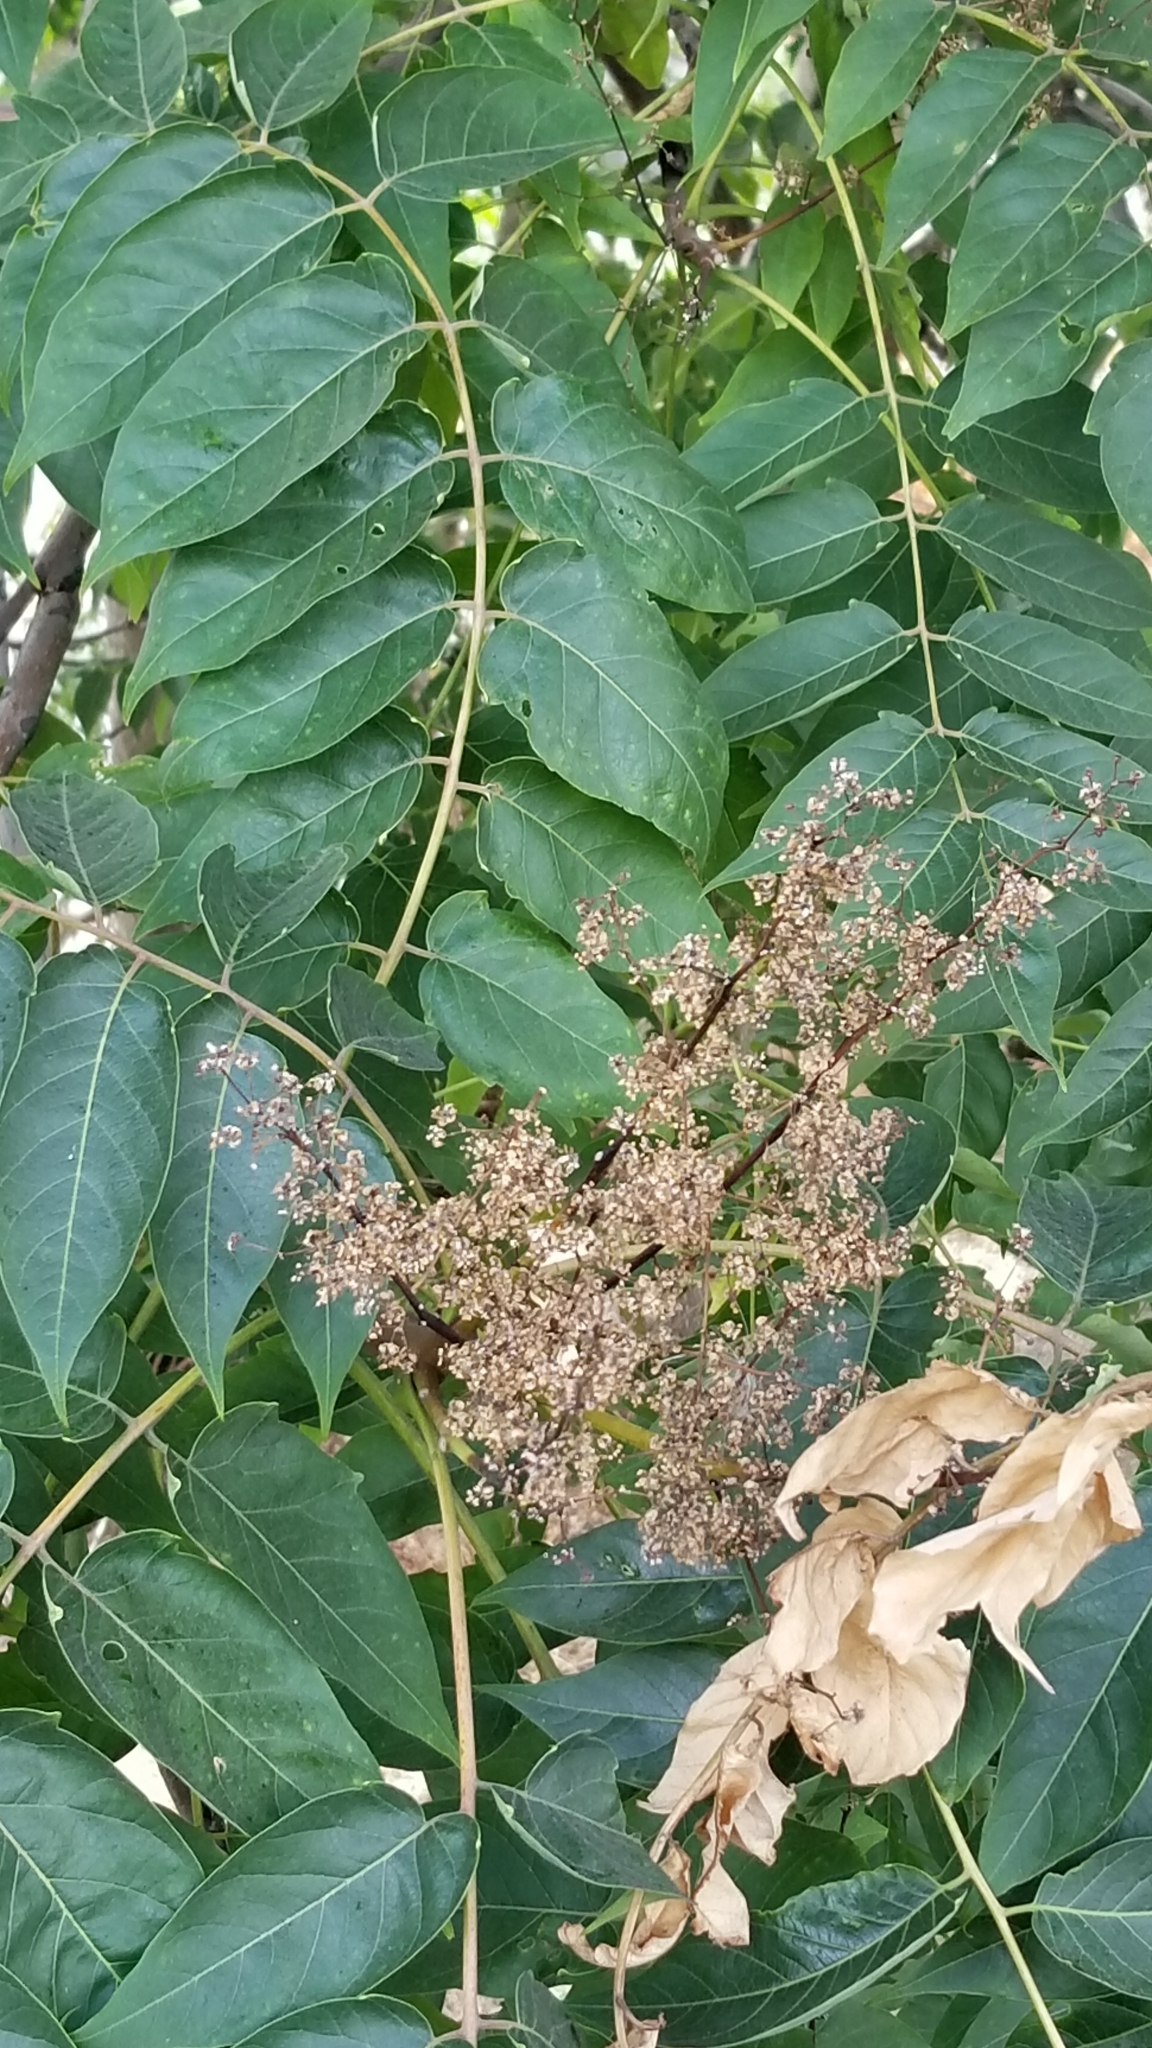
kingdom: Plantae
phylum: Tracheophyta
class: Magnoliopsida
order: Sapindales
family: Simaroubaceae
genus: Ailanthus
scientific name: Ailanthus altissima
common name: Tree-of-heaven
